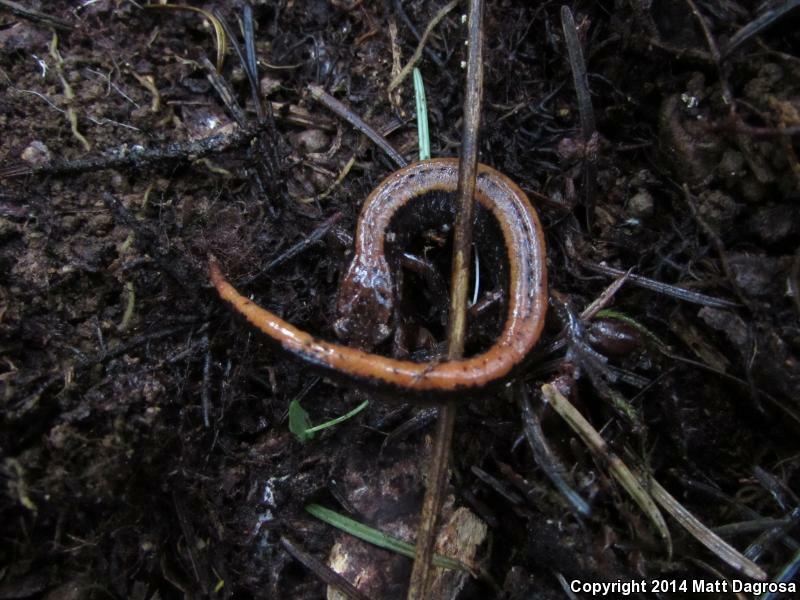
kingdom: Animalia
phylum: Chordata
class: Amphibia
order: Caudata
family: Plethodontidae
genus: Plethodon
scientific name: Plethodon vehiculum
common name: Western red-backed salamander
